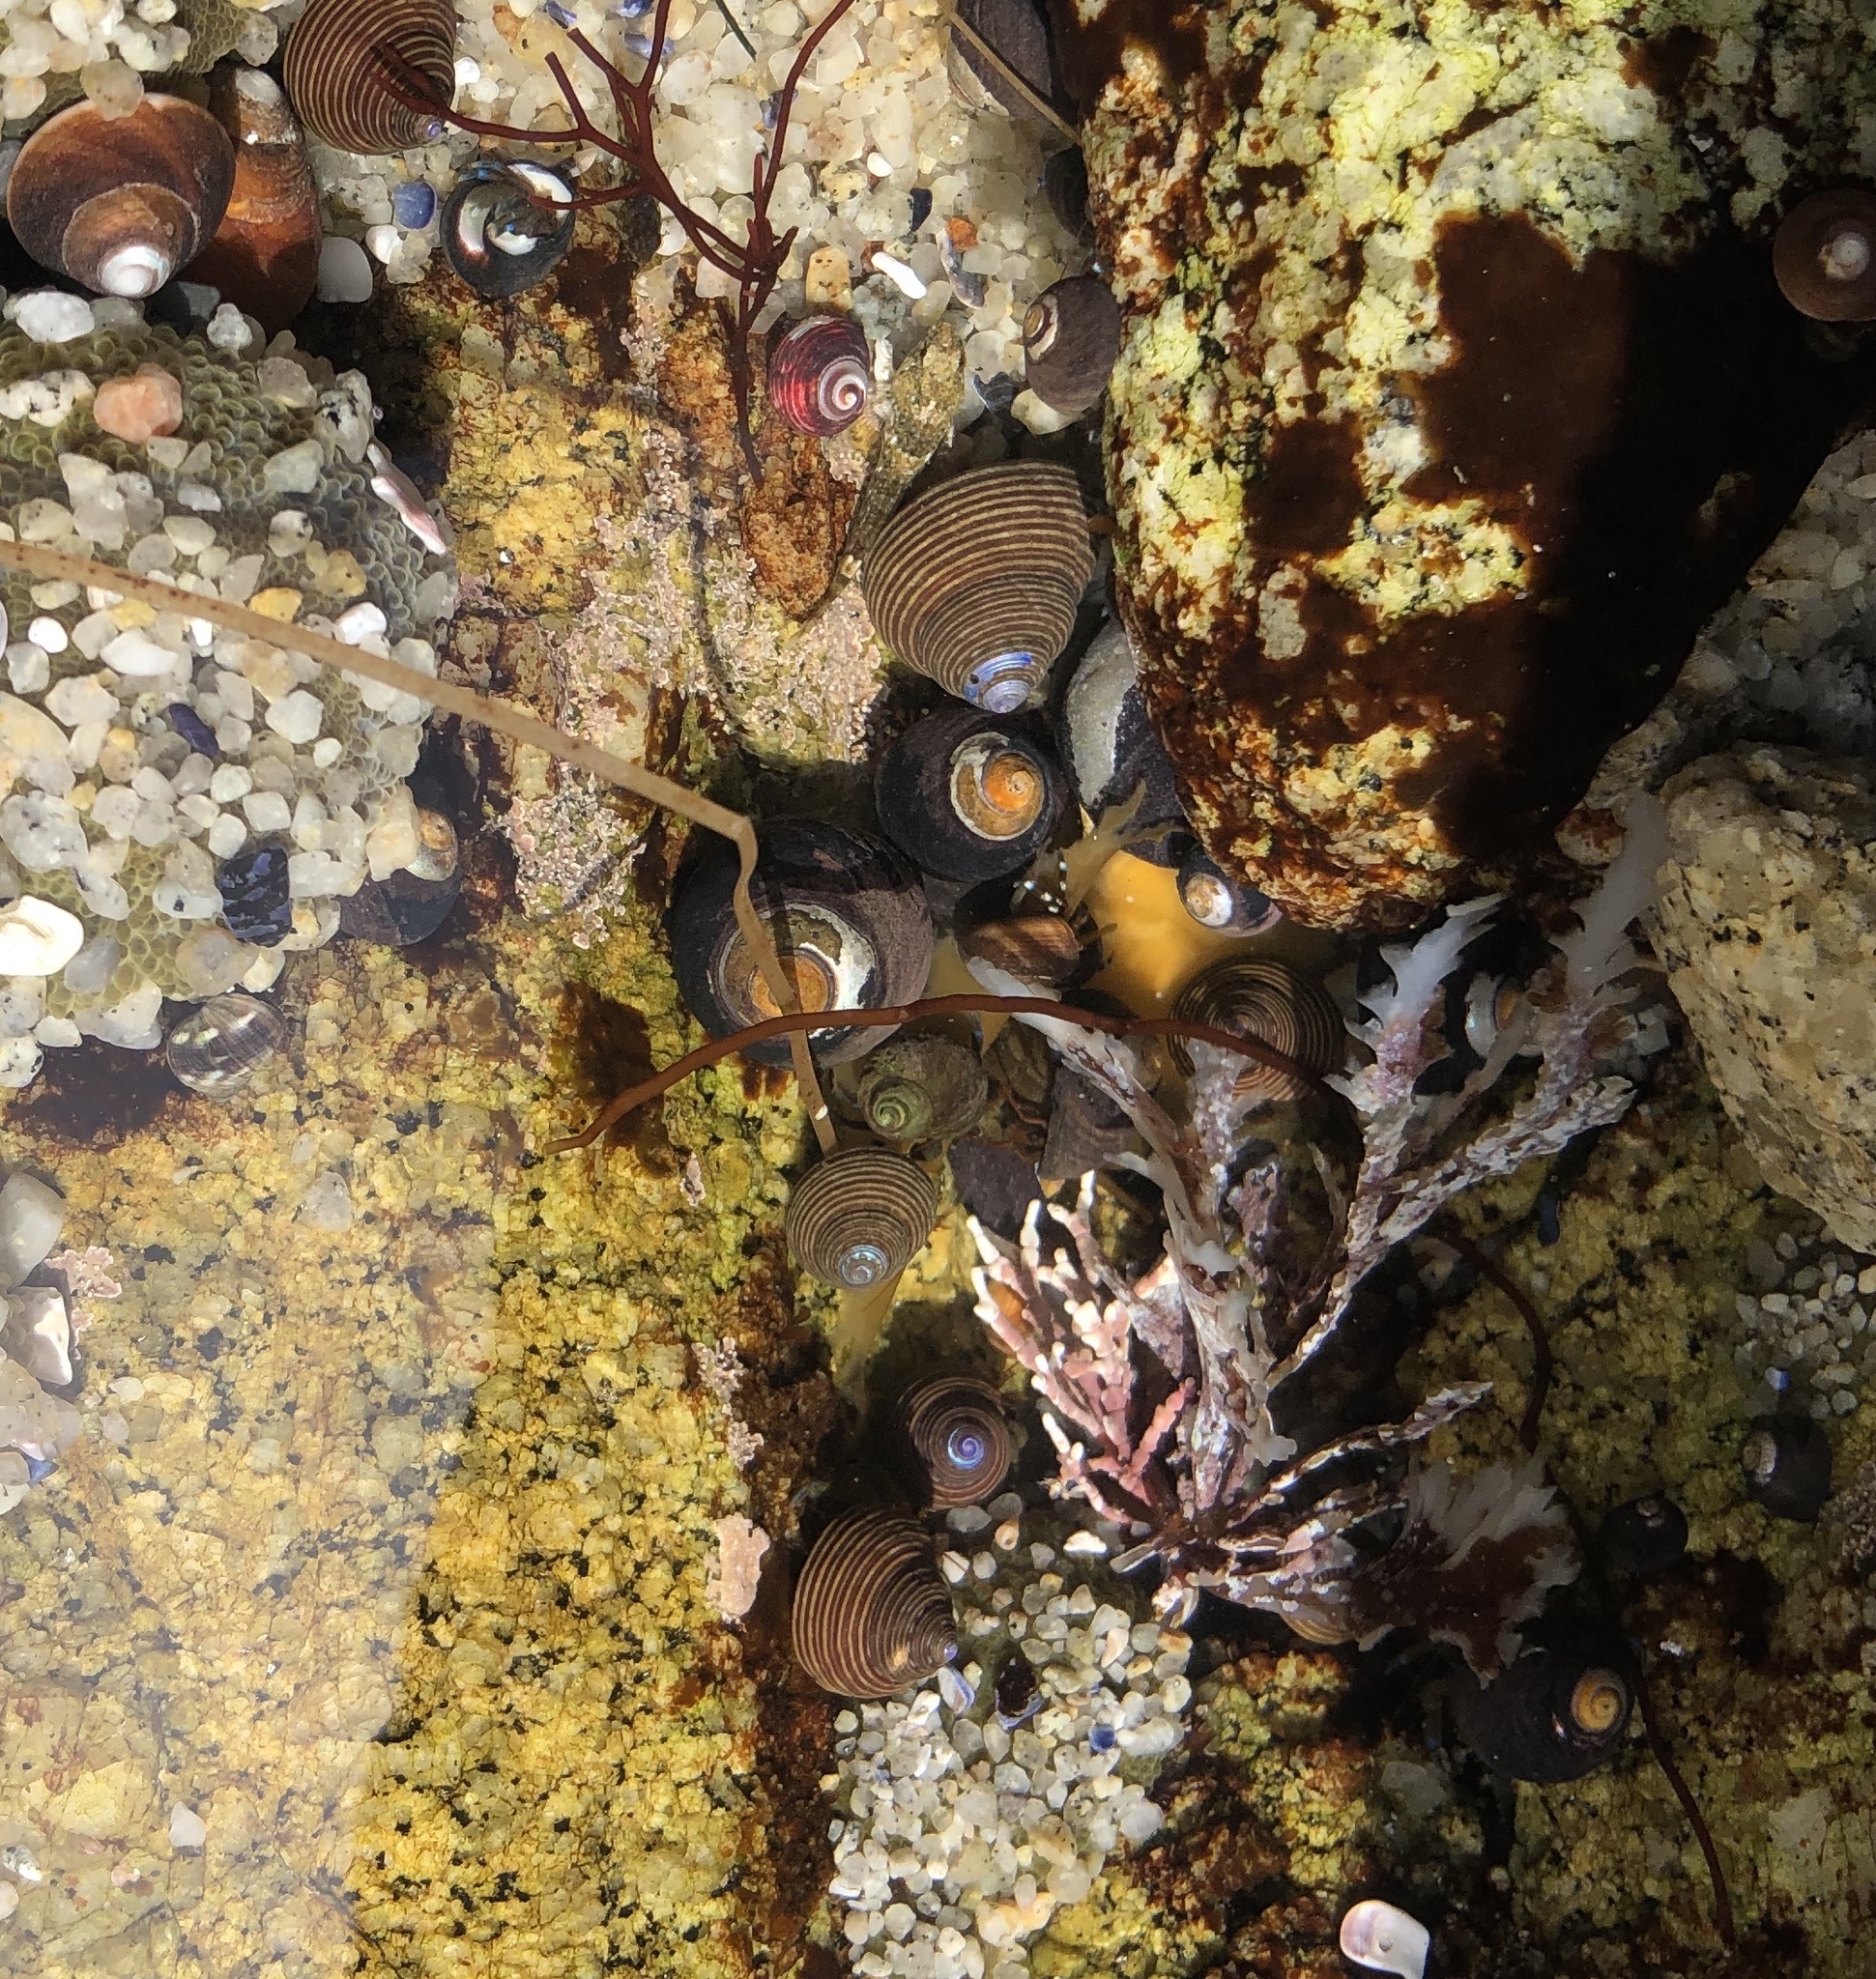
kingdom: Animalia
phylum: Mollusca
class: Gastropoda
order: Trochida
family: Calliostomatidae
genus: Calliostoma
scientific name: Calliostoma ligatum
